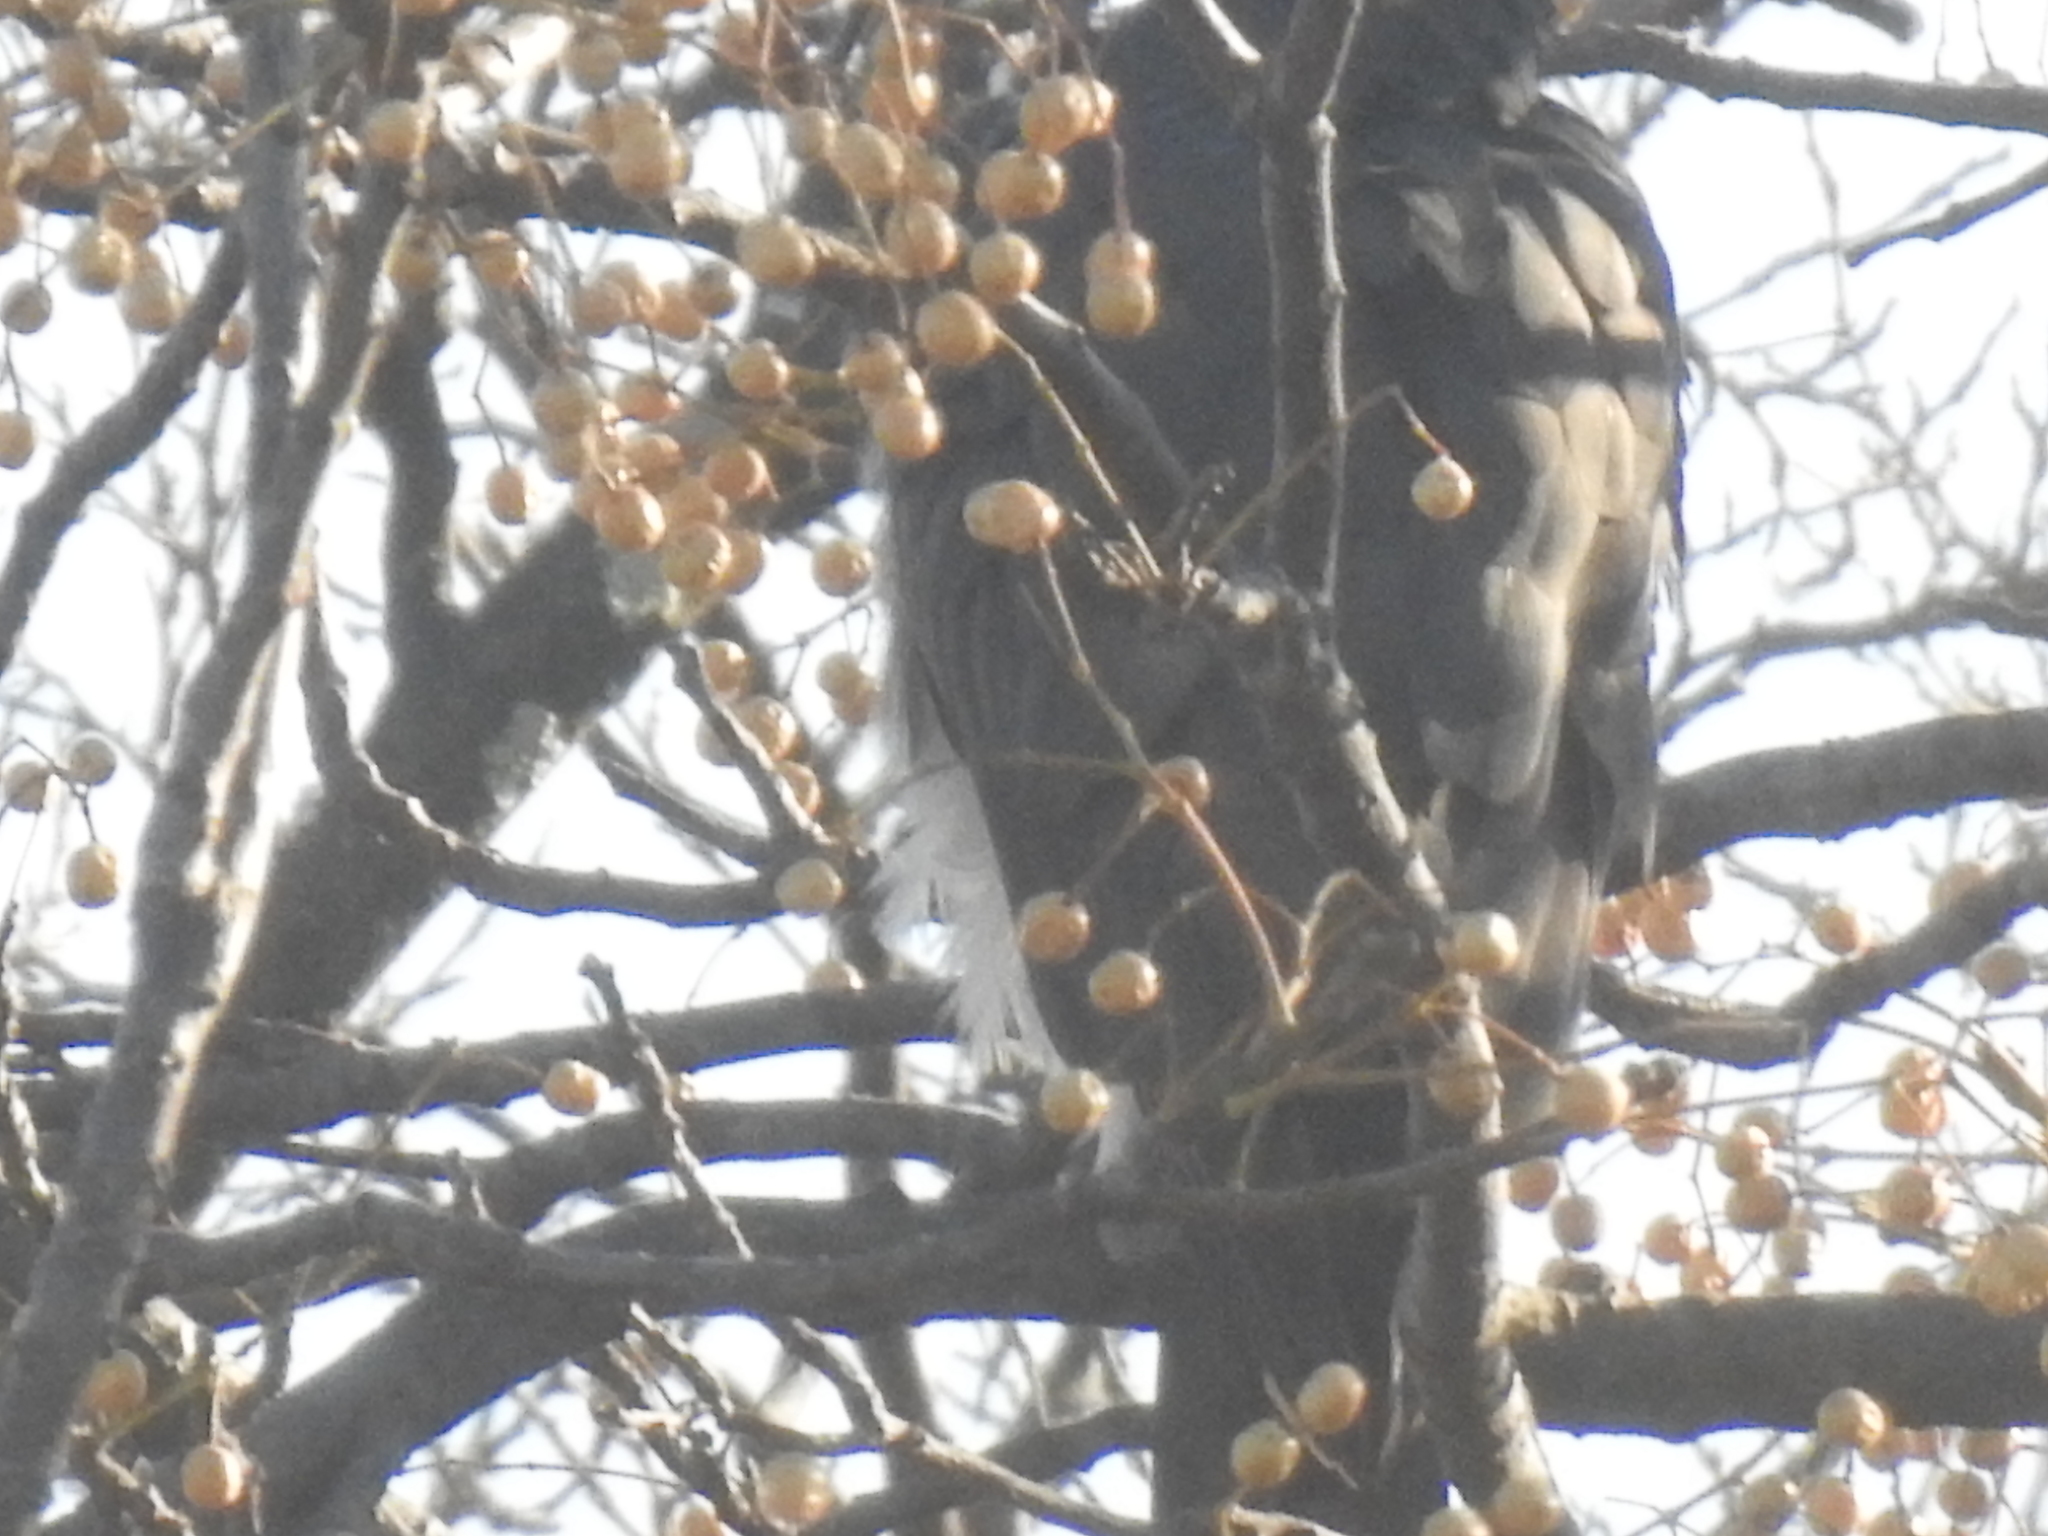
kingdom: Animalia
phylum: Chordata
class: Aves
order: Accipitriformes
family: Accipitridae
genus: Accipiter
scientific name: Accipiter melanoleucus
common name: Black sparrowhawk
